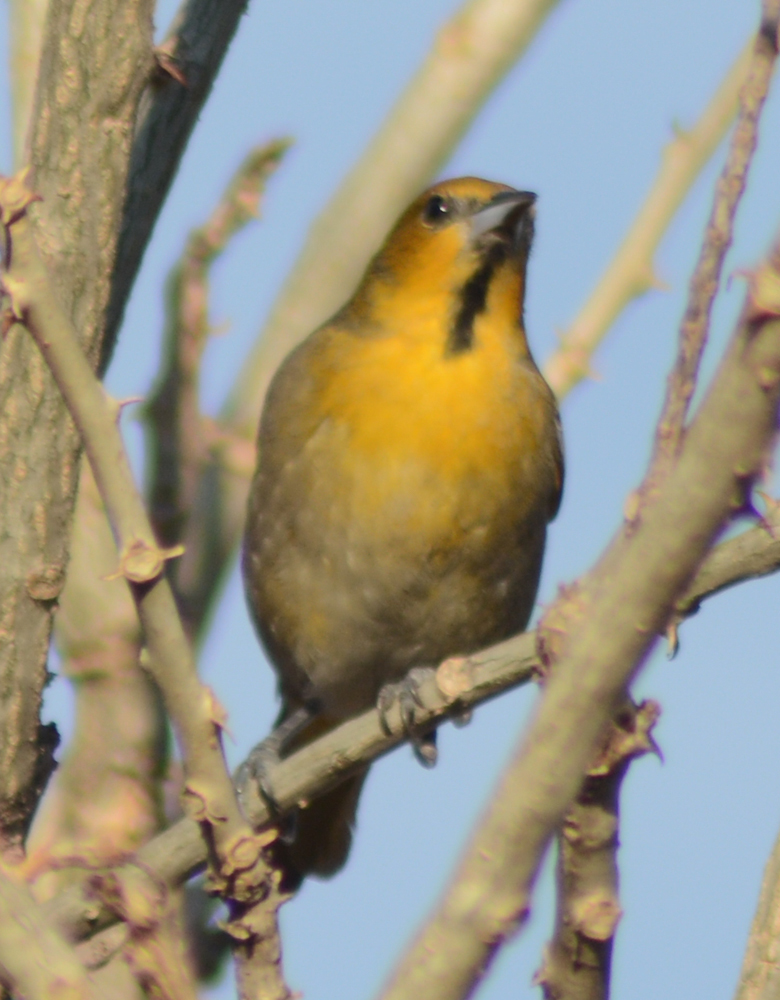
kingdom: Animalia
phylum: Chordata
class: Aves
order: Passeriformes
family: Icteridae
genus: Icterus
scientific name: Icterus abeillei
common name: Black-backed oriole
